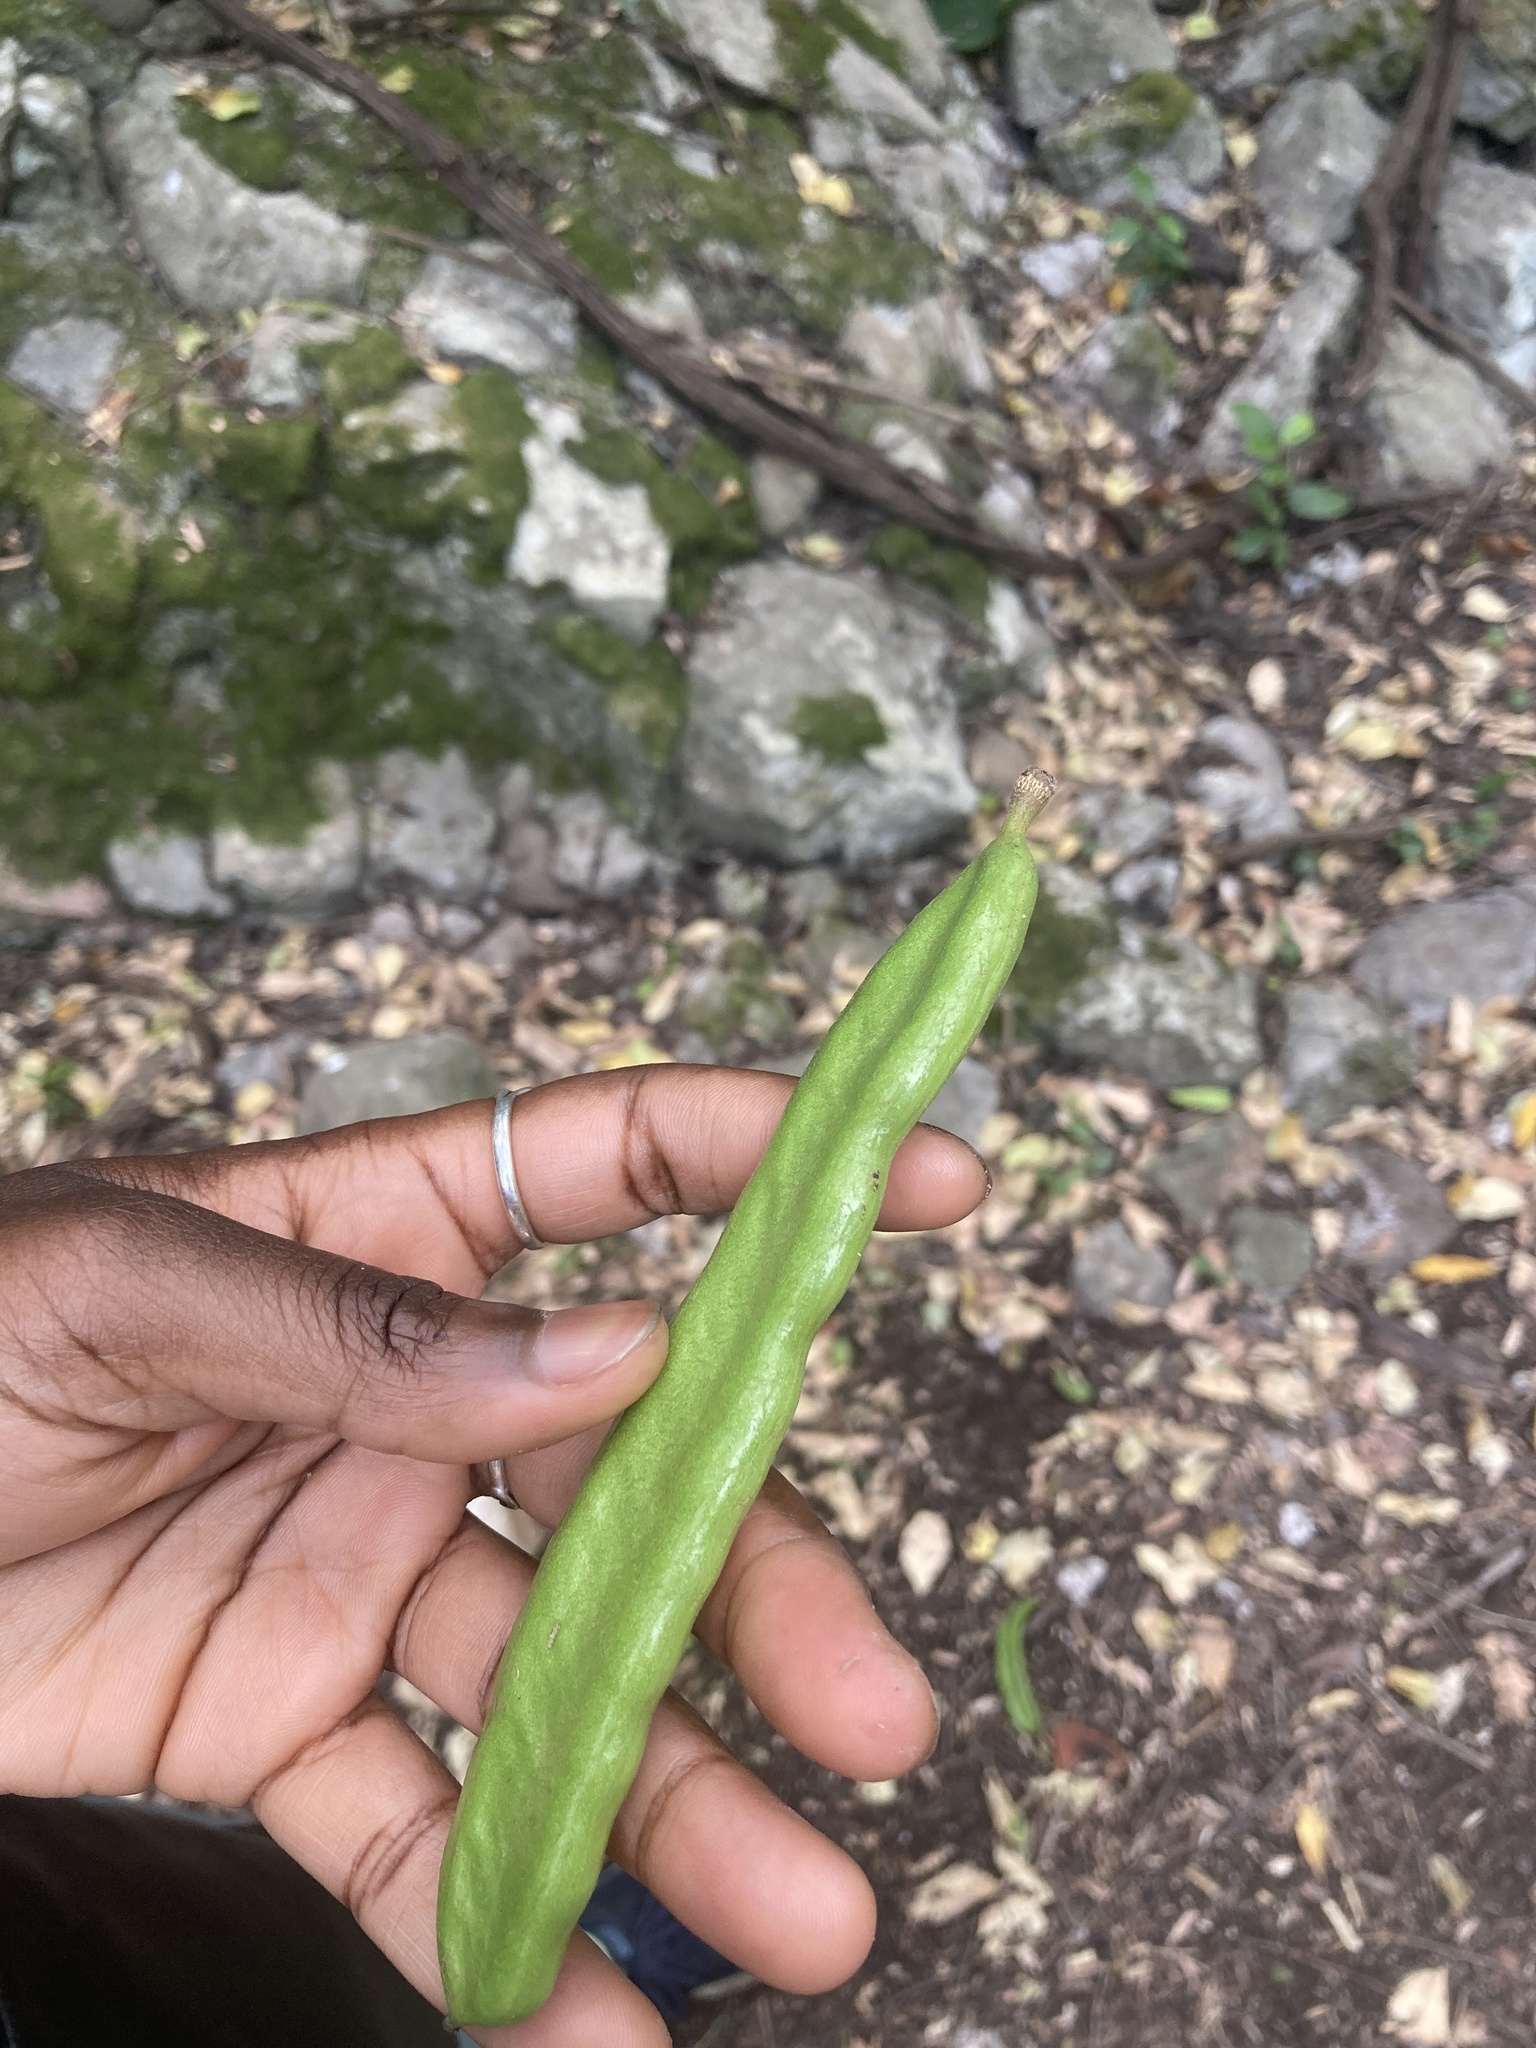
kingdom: Plantae
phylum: Tracheophyta
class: Magnoliopsida
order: Fabales
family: Fabaceae
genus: Ceratonia
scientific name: Ceratonia siliqua
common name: Carob
